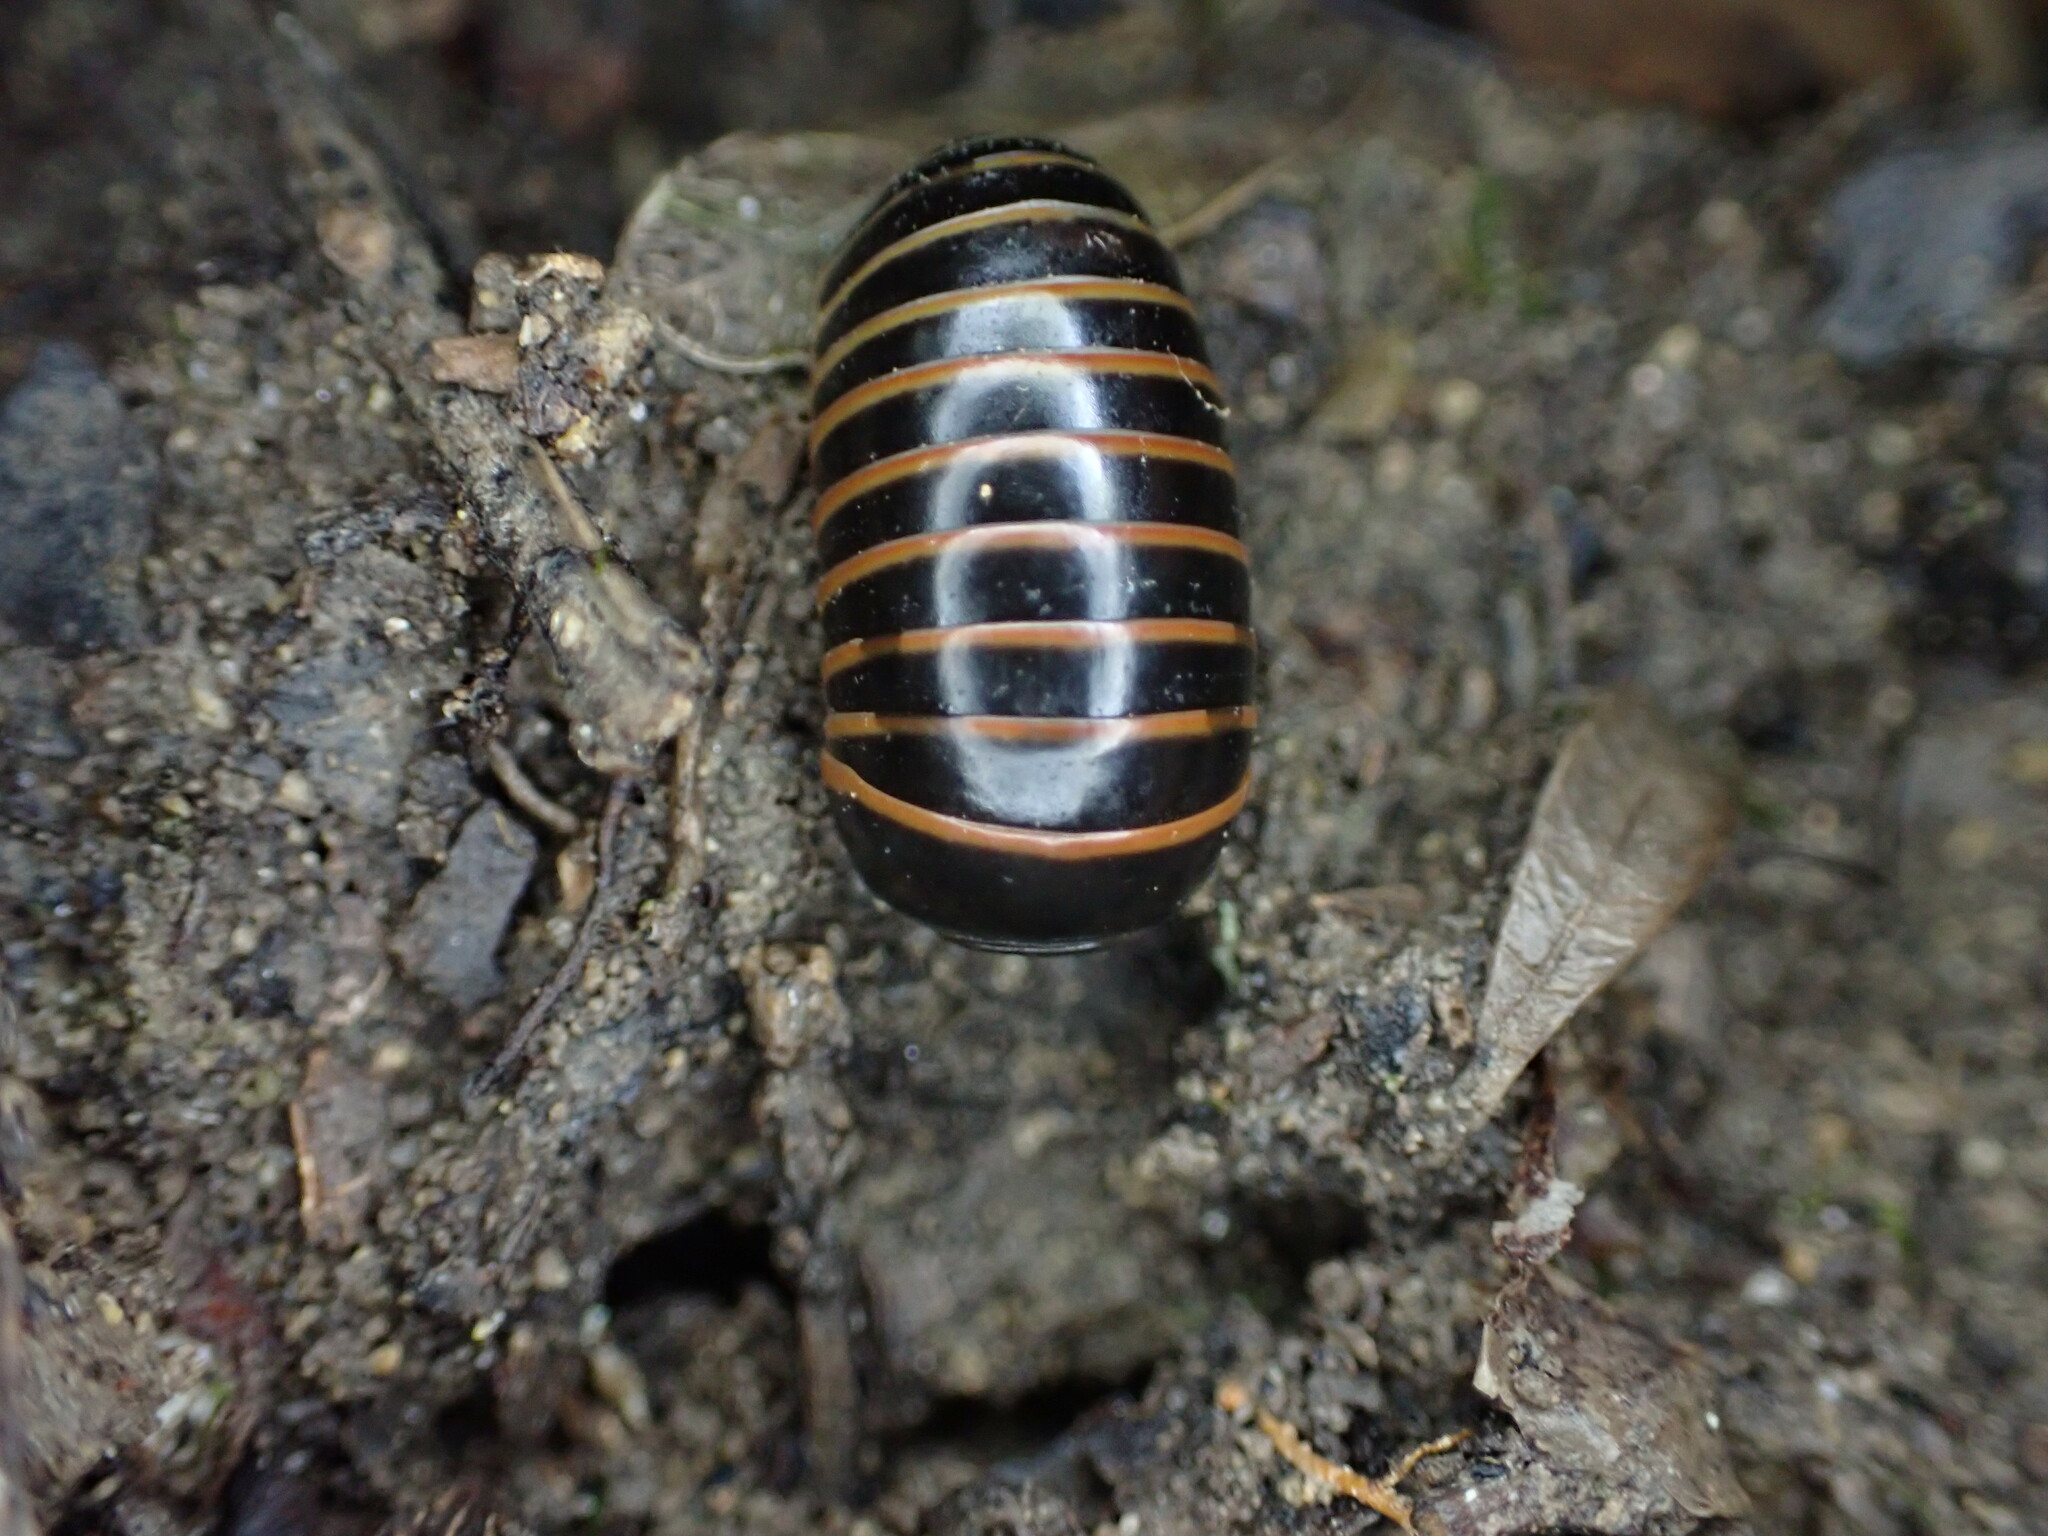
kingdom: Animalia
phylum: Arthropoda
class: Diplopoda
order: Glomerida
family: Glomeridae
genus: Glomeris
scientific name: Glomeris marginata
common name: Bordered pill millipede
